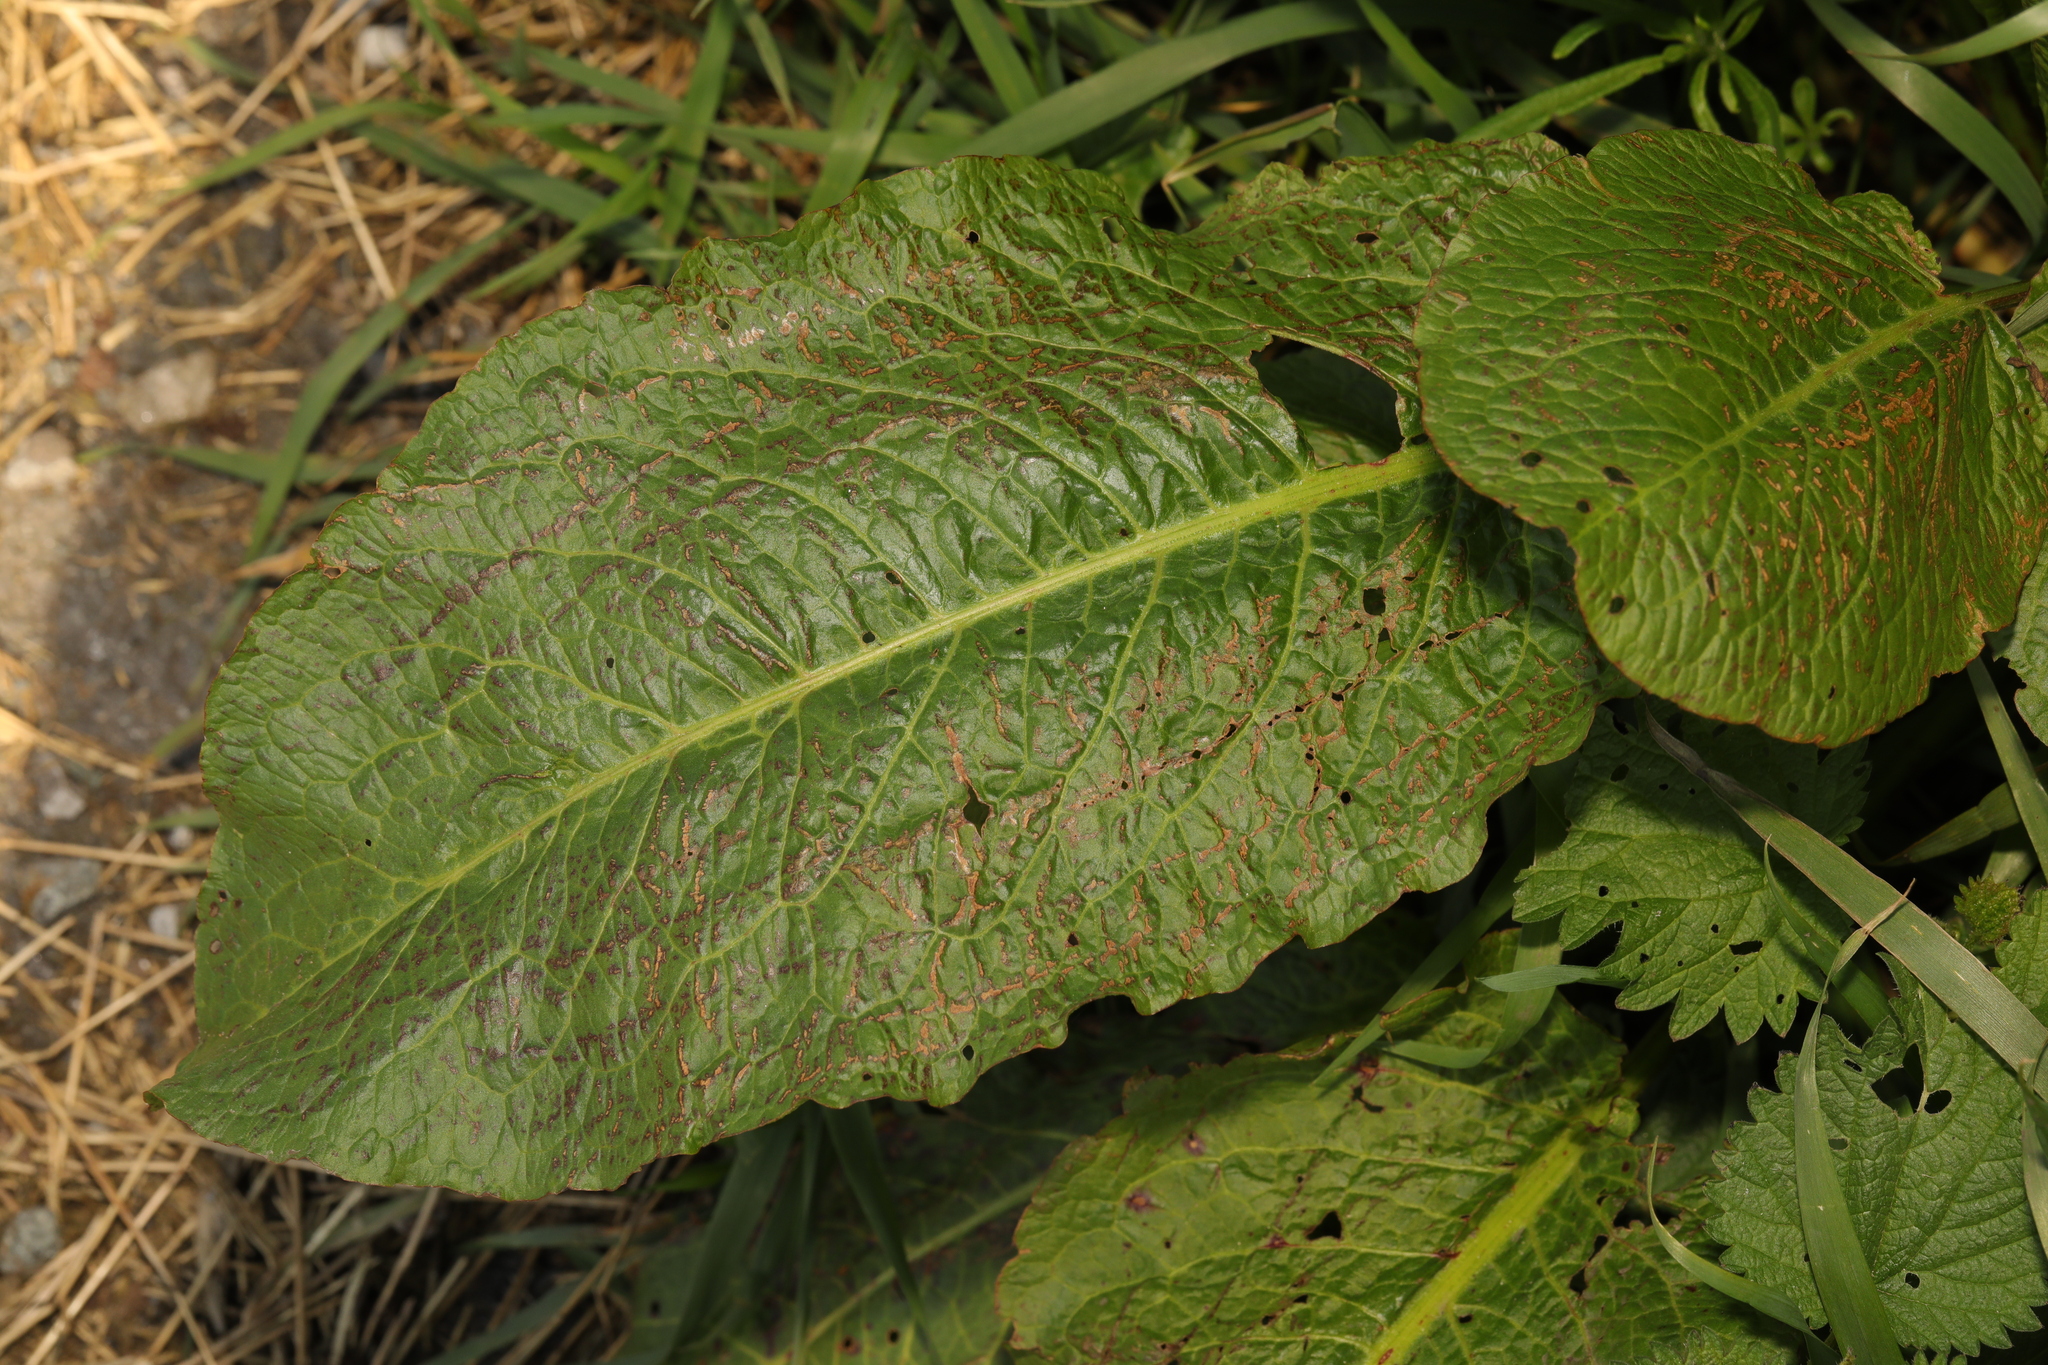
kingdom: Plantae
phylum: Tracheophyta
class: Magnoliopsida
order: Caryophyllales
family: Polygonaceae
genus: Rumex
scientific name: Rumex obtusifolius
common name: Bitter dock
